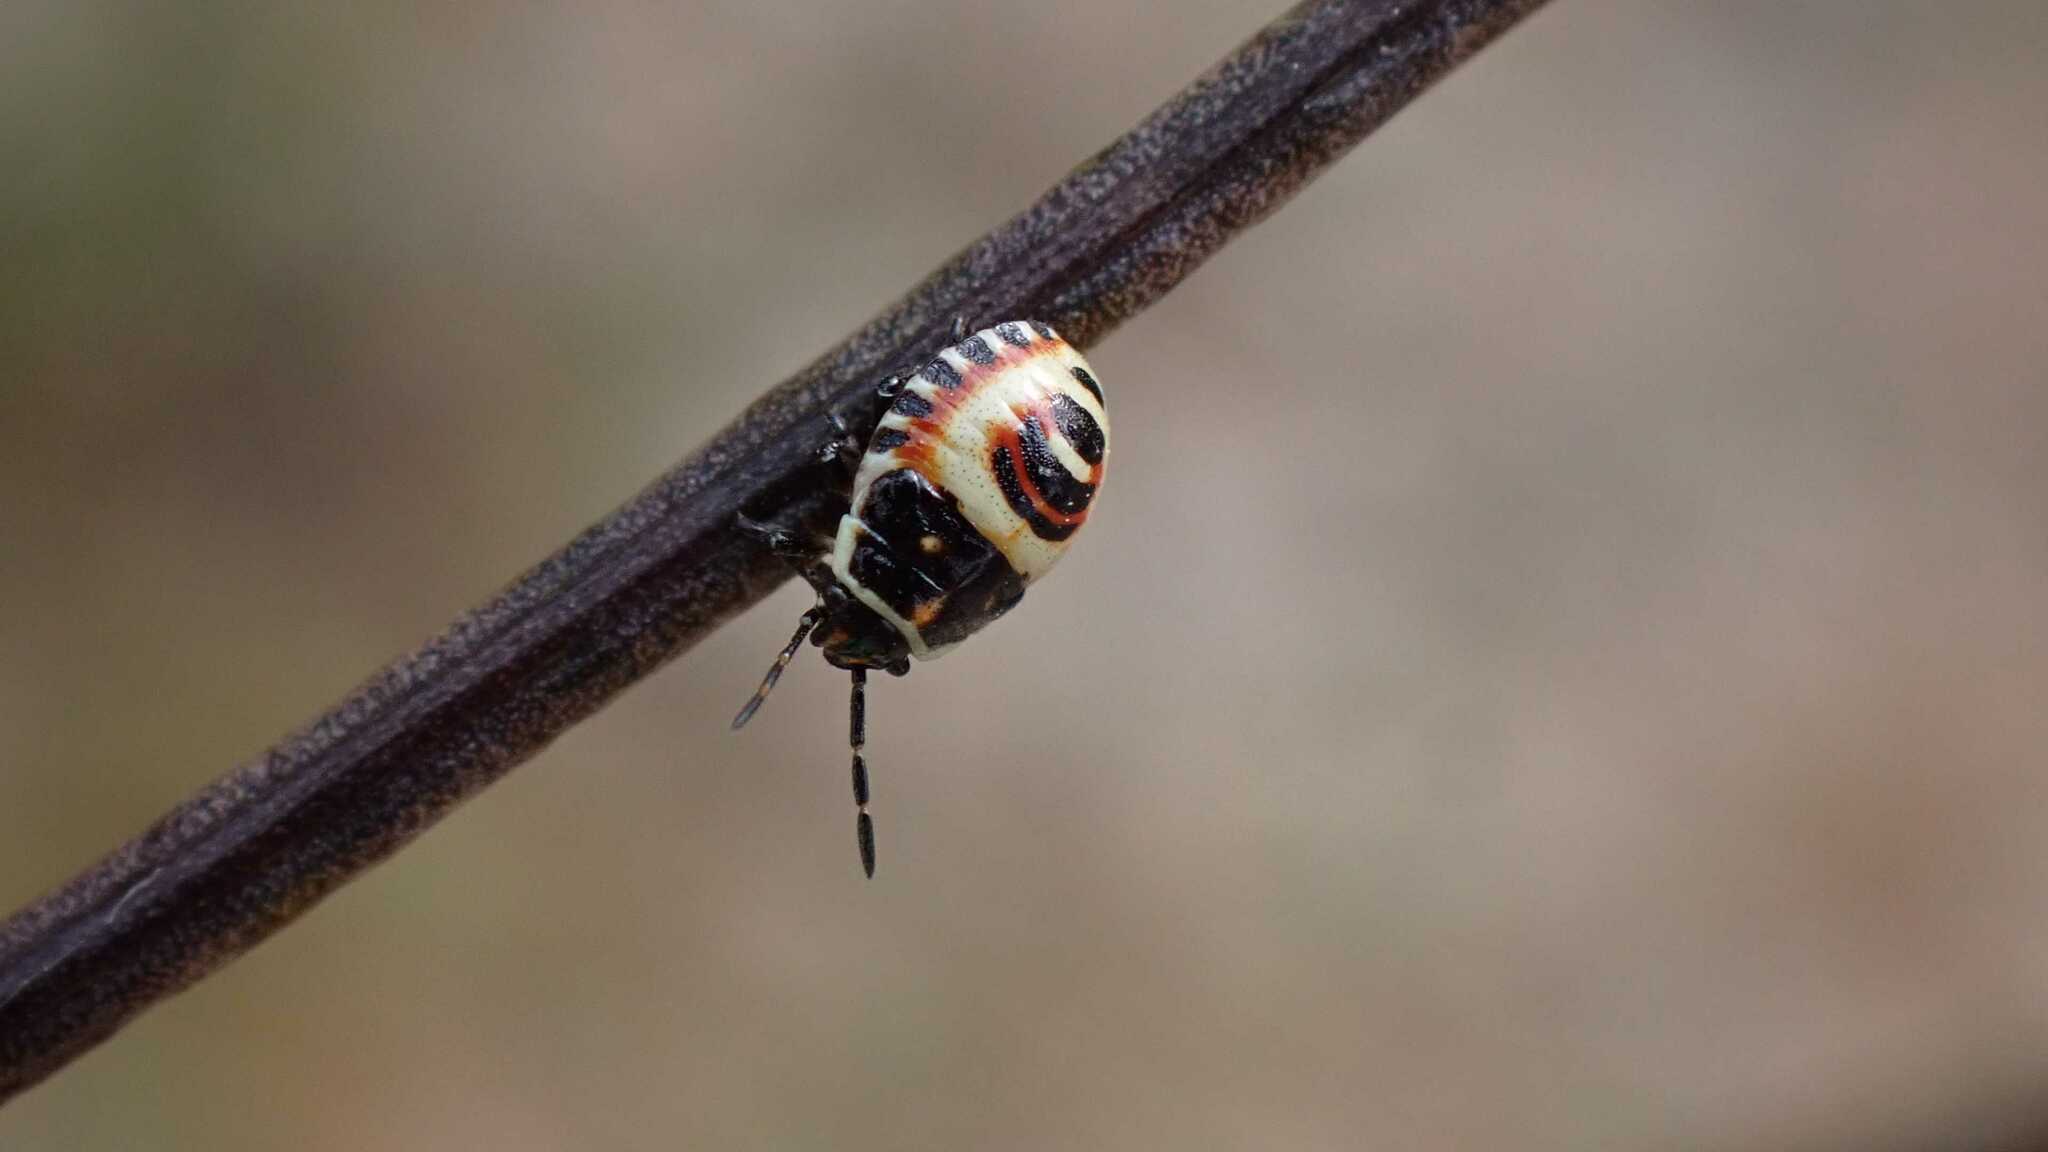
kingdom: Animalia
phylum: Arthropoda
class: Insecta
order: Hemiptera
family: Pentatomidae
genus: Eurydema
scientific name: Eurydema ornata
